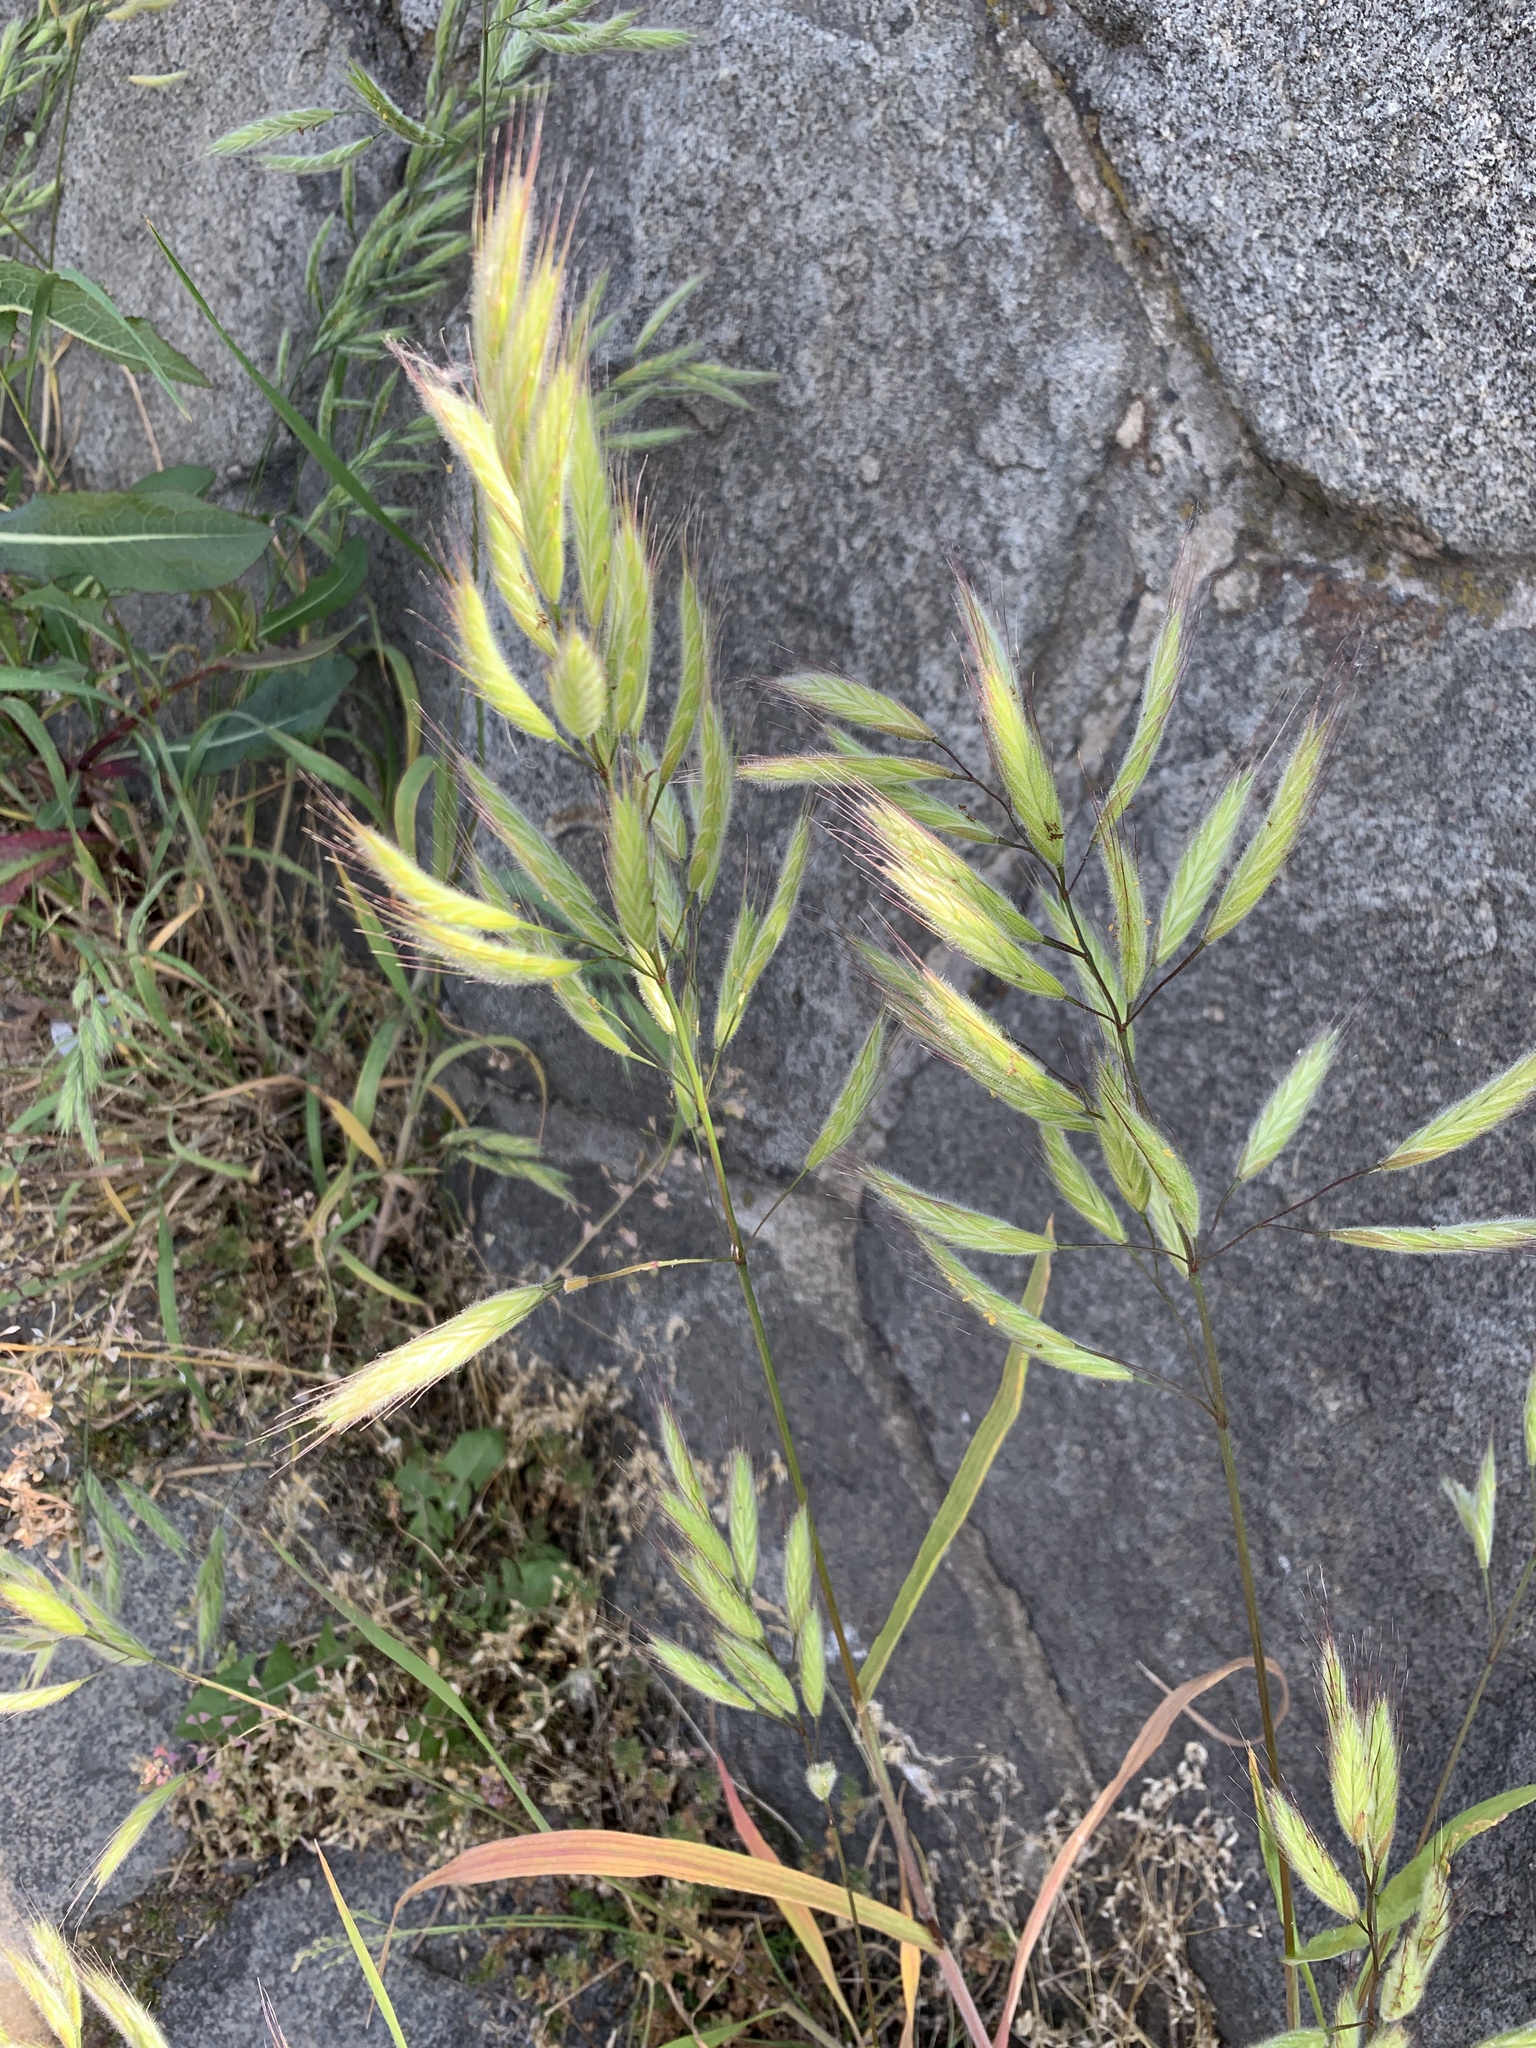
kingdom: Plantae
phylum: Tracheophyta
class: Liliopsida
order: Poales
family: Poaceae
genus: Bromus
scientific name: Bromus lanceolatus
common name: Mediterranean brome
